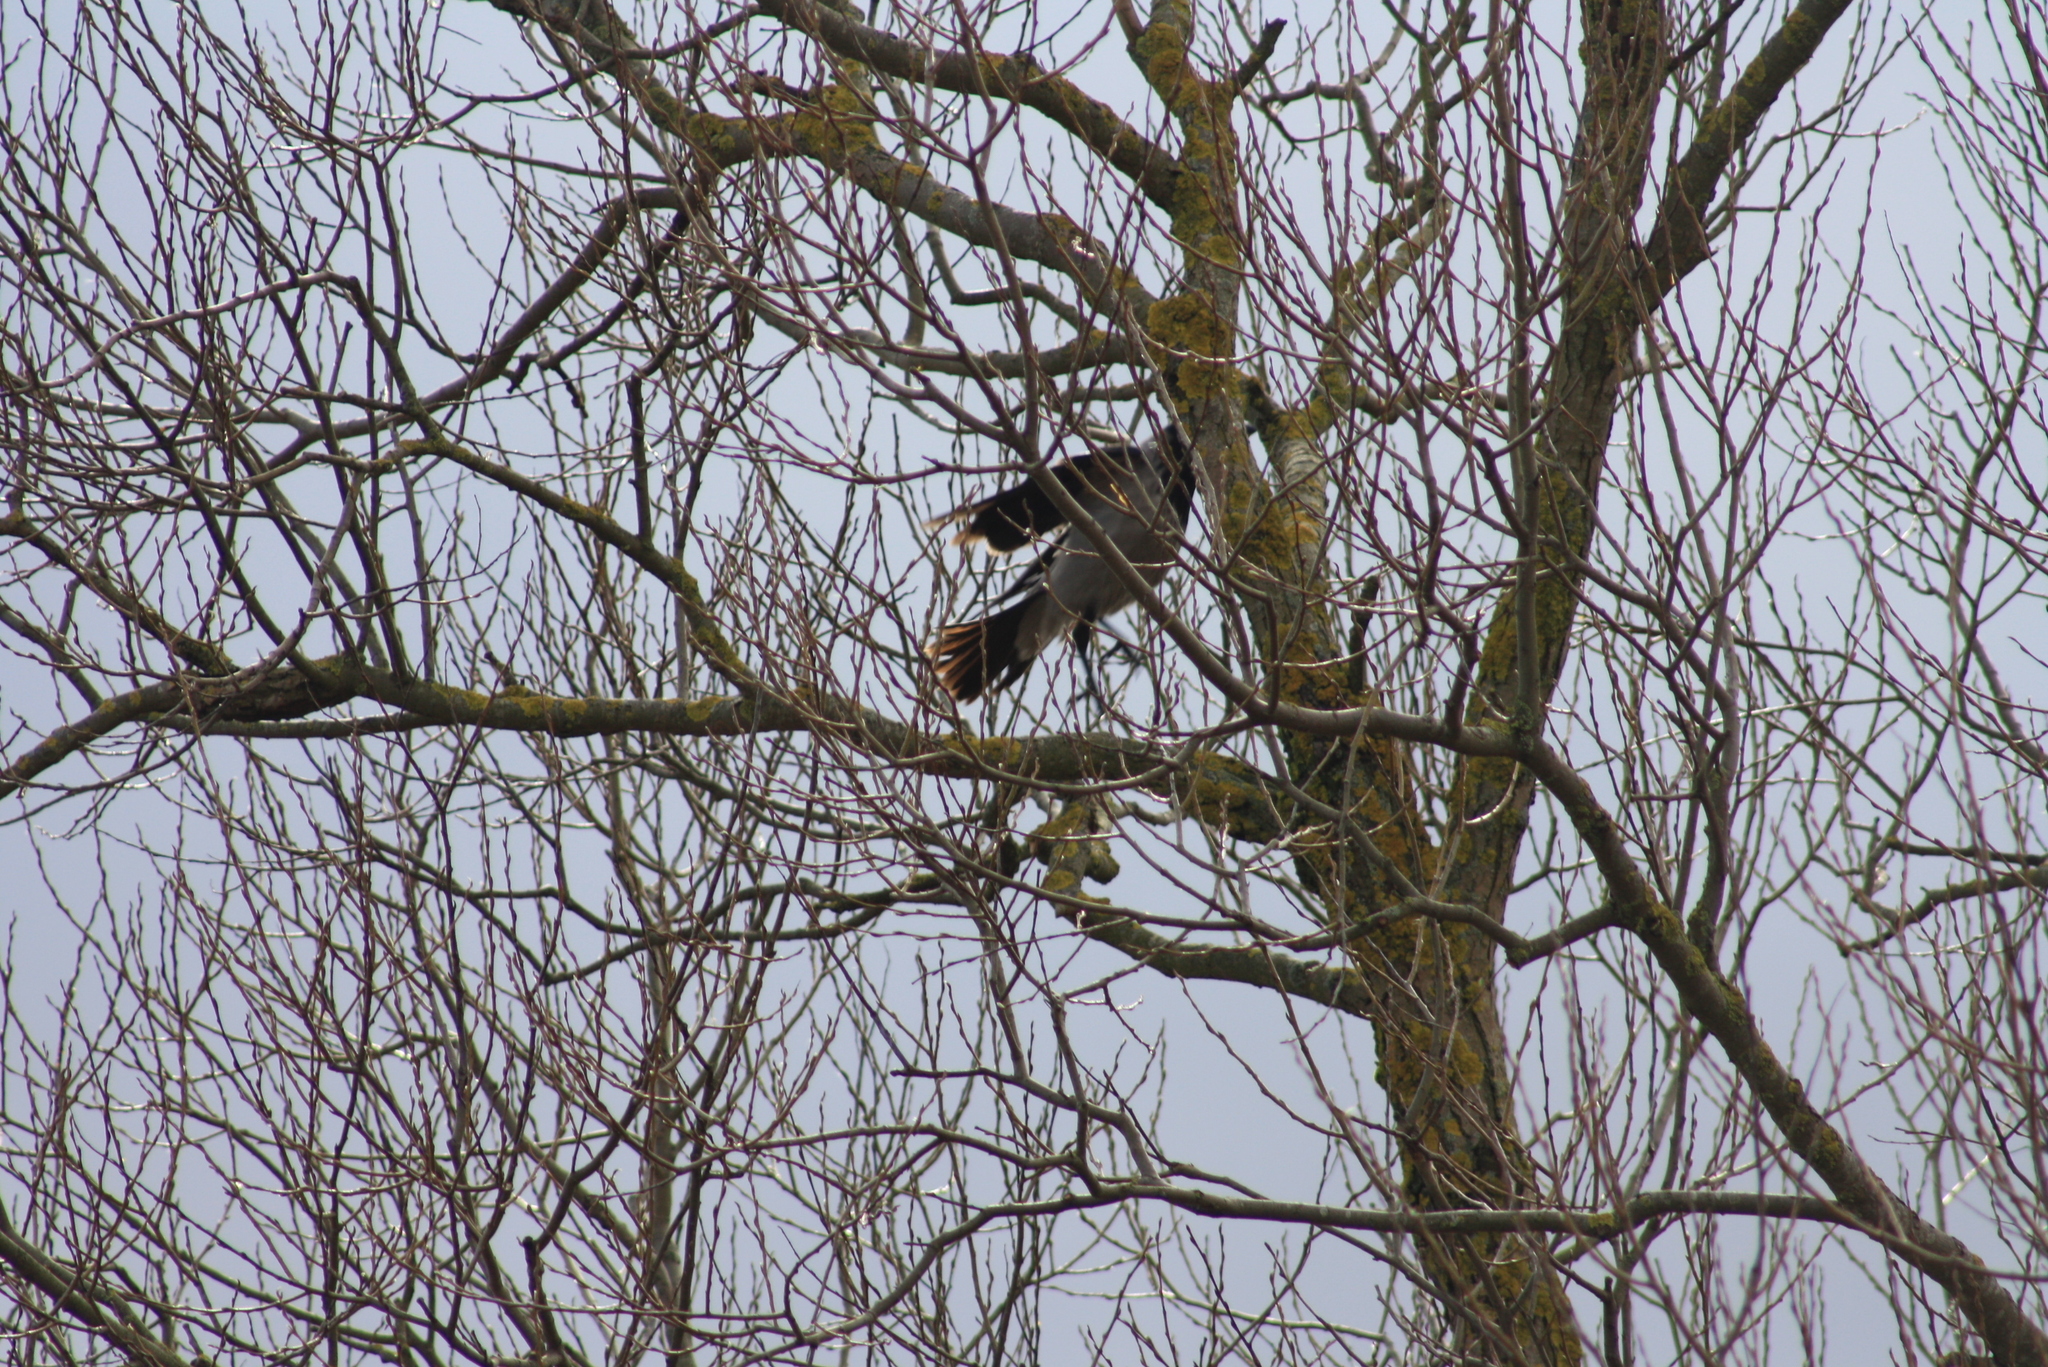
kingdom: Animalia
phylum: Chordata
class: Aves
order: Passeriformes
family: Corvidae
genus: Corvus
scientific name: Corvus cornix
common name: Hooded crow
